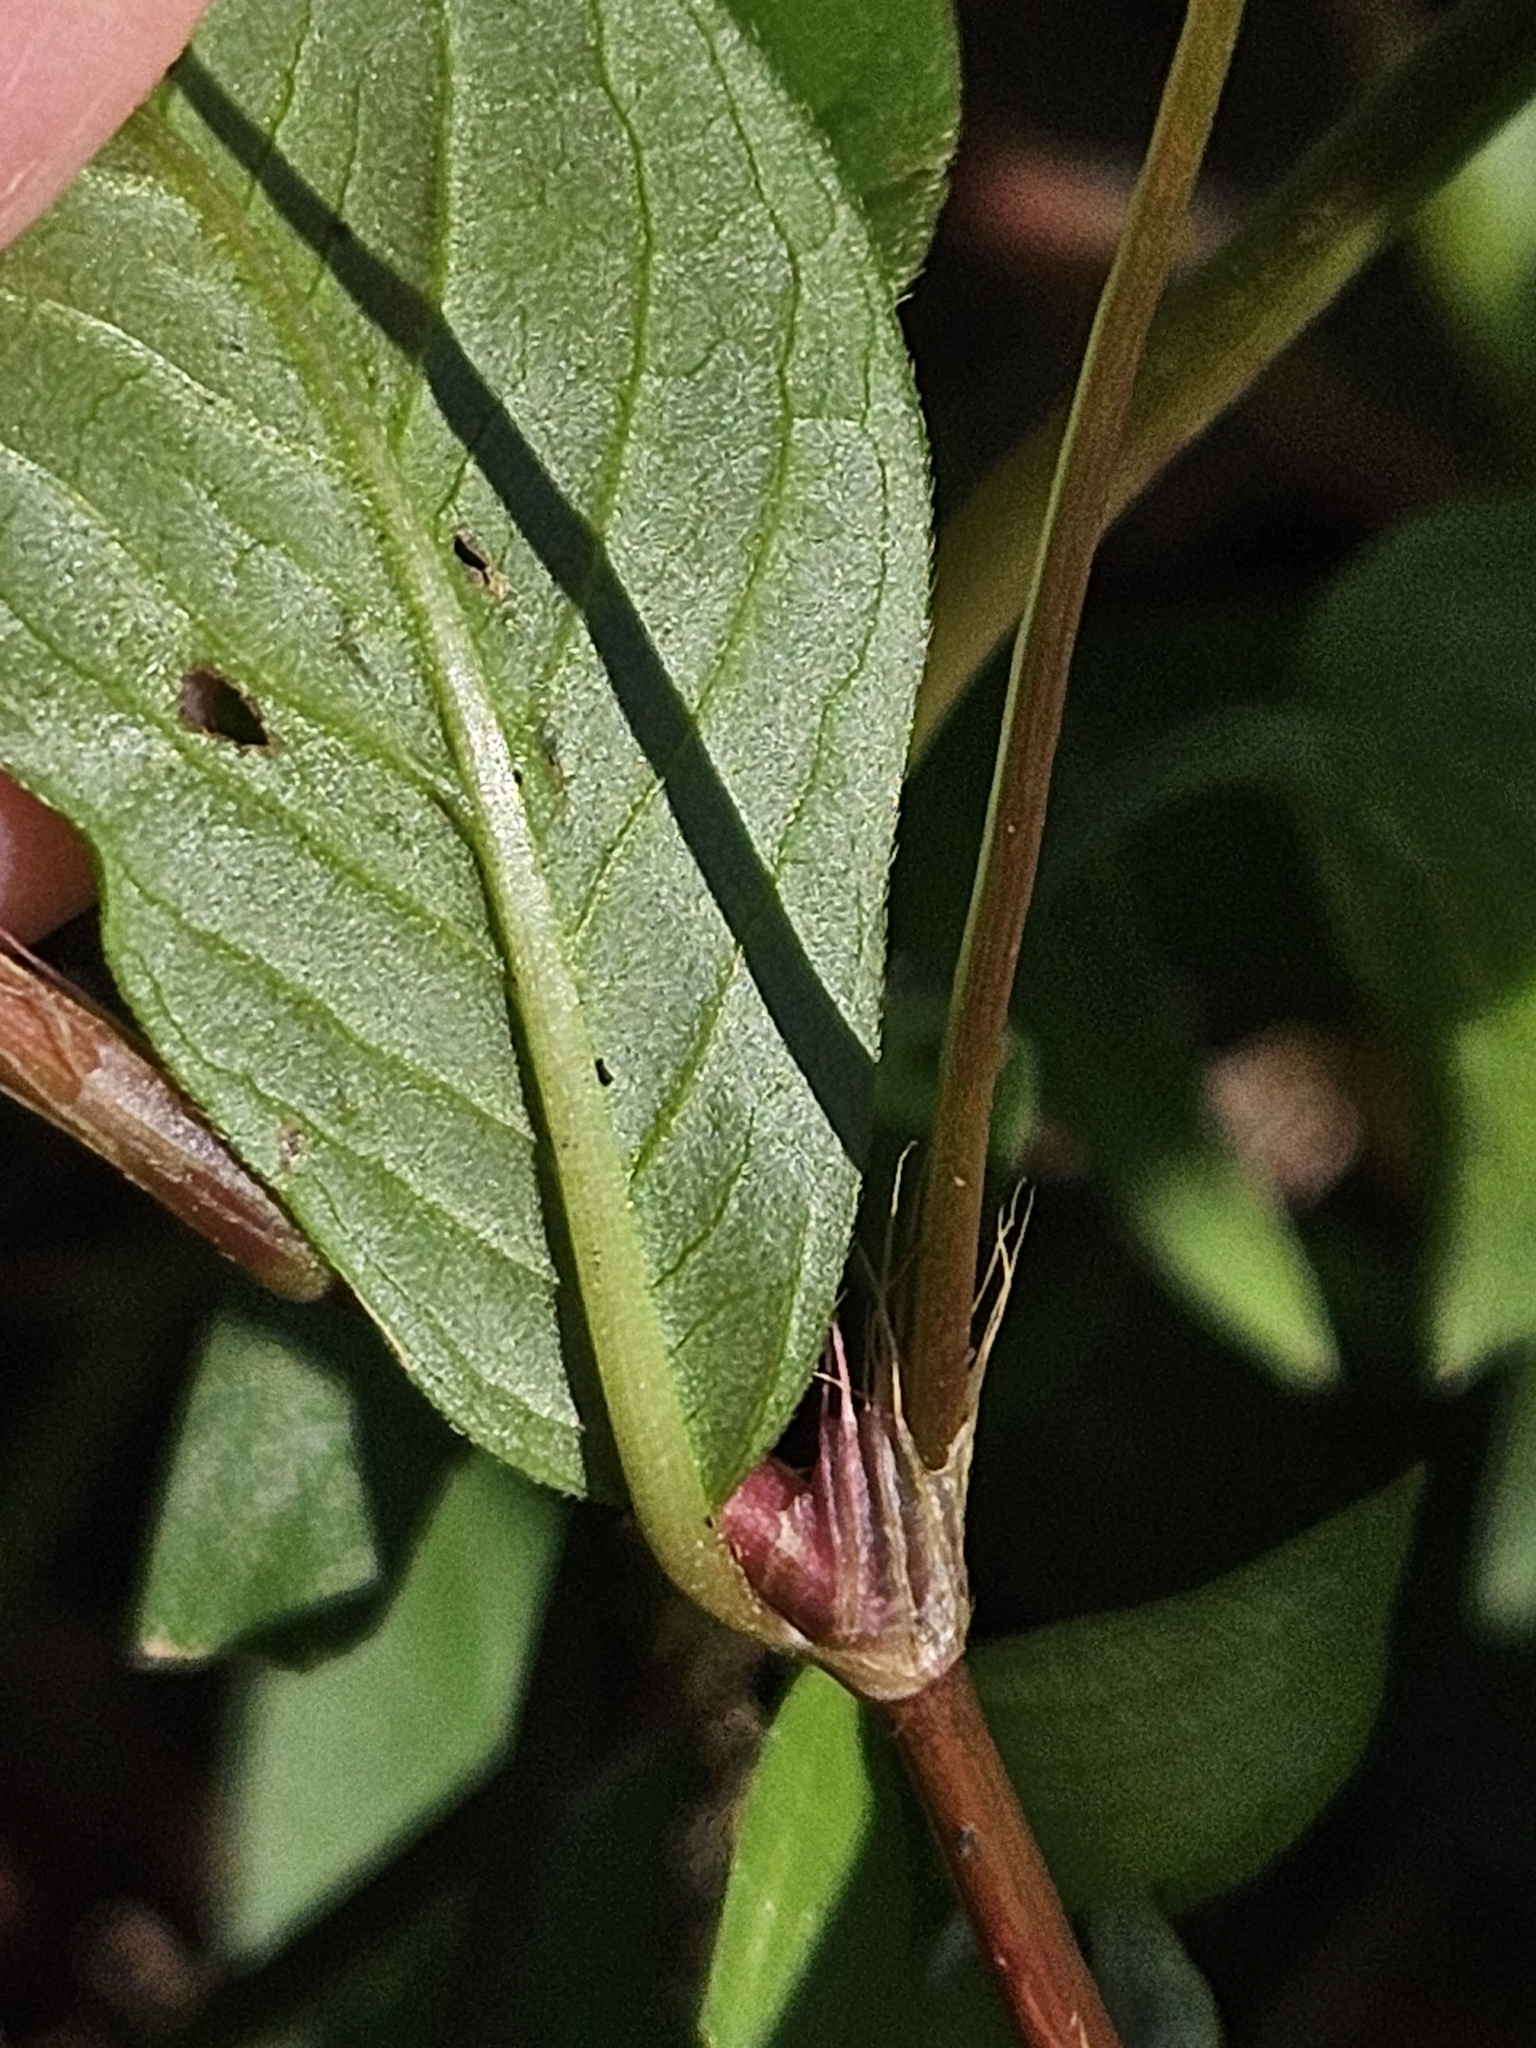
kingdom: Plantae
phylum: Tracheophyta
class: Magnoliopsida
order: Caryophyllales
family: Polygonaceae
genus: Persicaria
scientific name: Persicaria longiseta
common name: Bristly lady's-thumb
